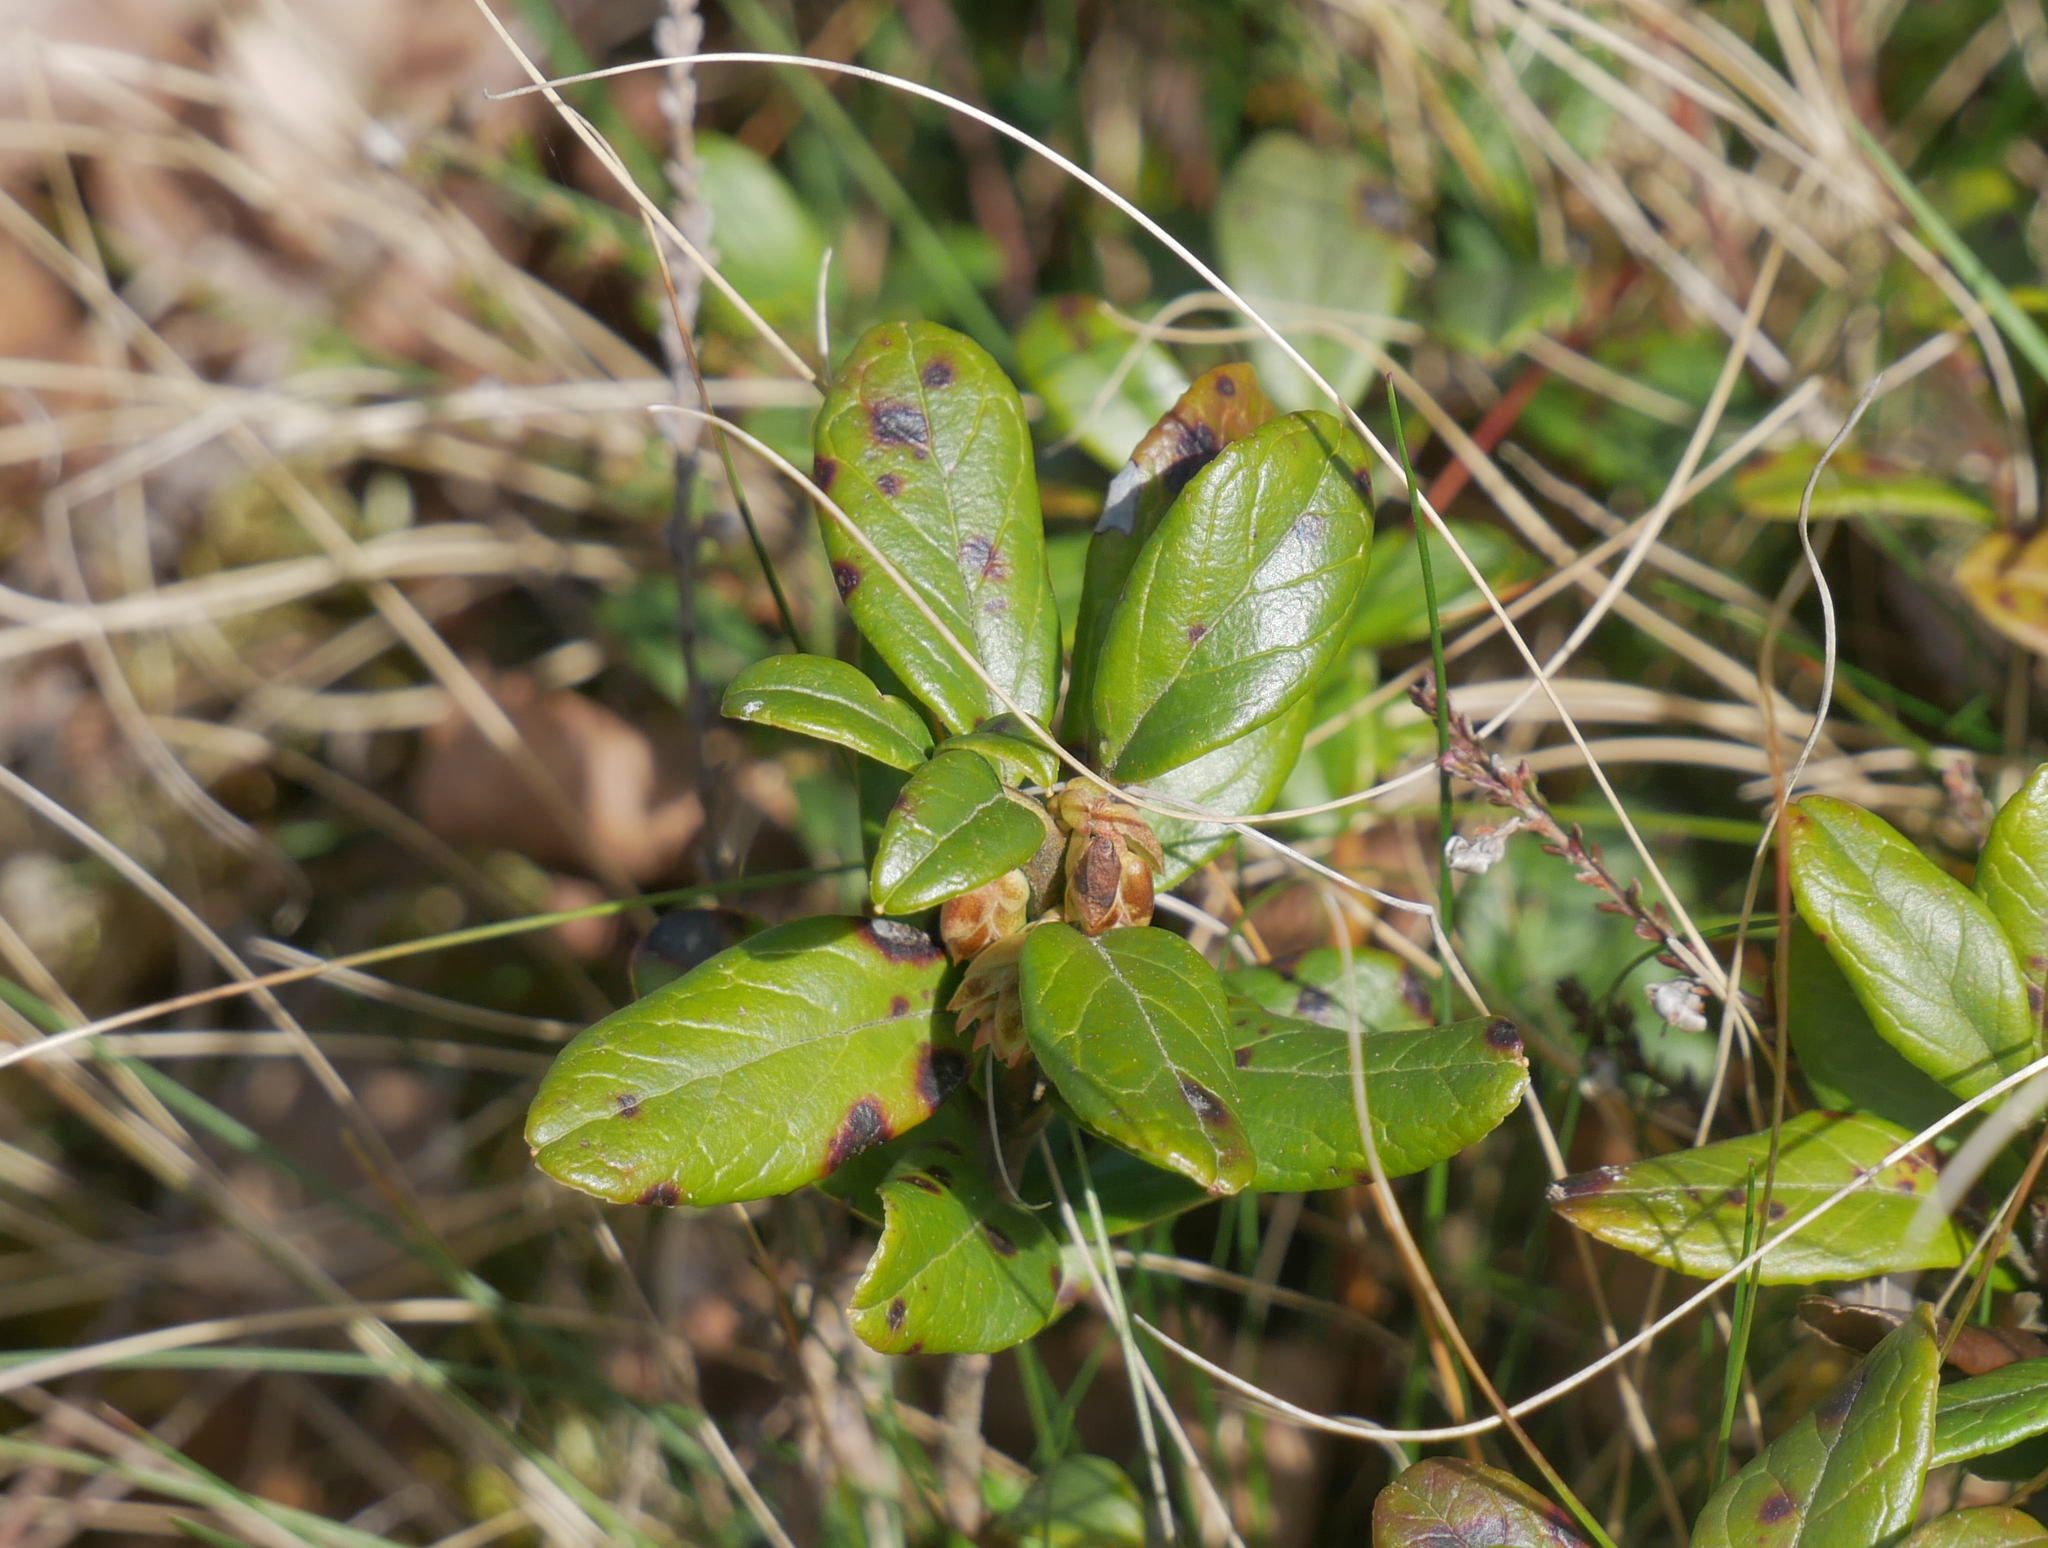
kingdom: Plantae
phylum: Tracheophyta
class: Magnoliopsida
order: Ericales
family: Ericaceae
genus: Vaccinium
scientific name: Vaccinium vitis-idaea
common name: Cowberry
